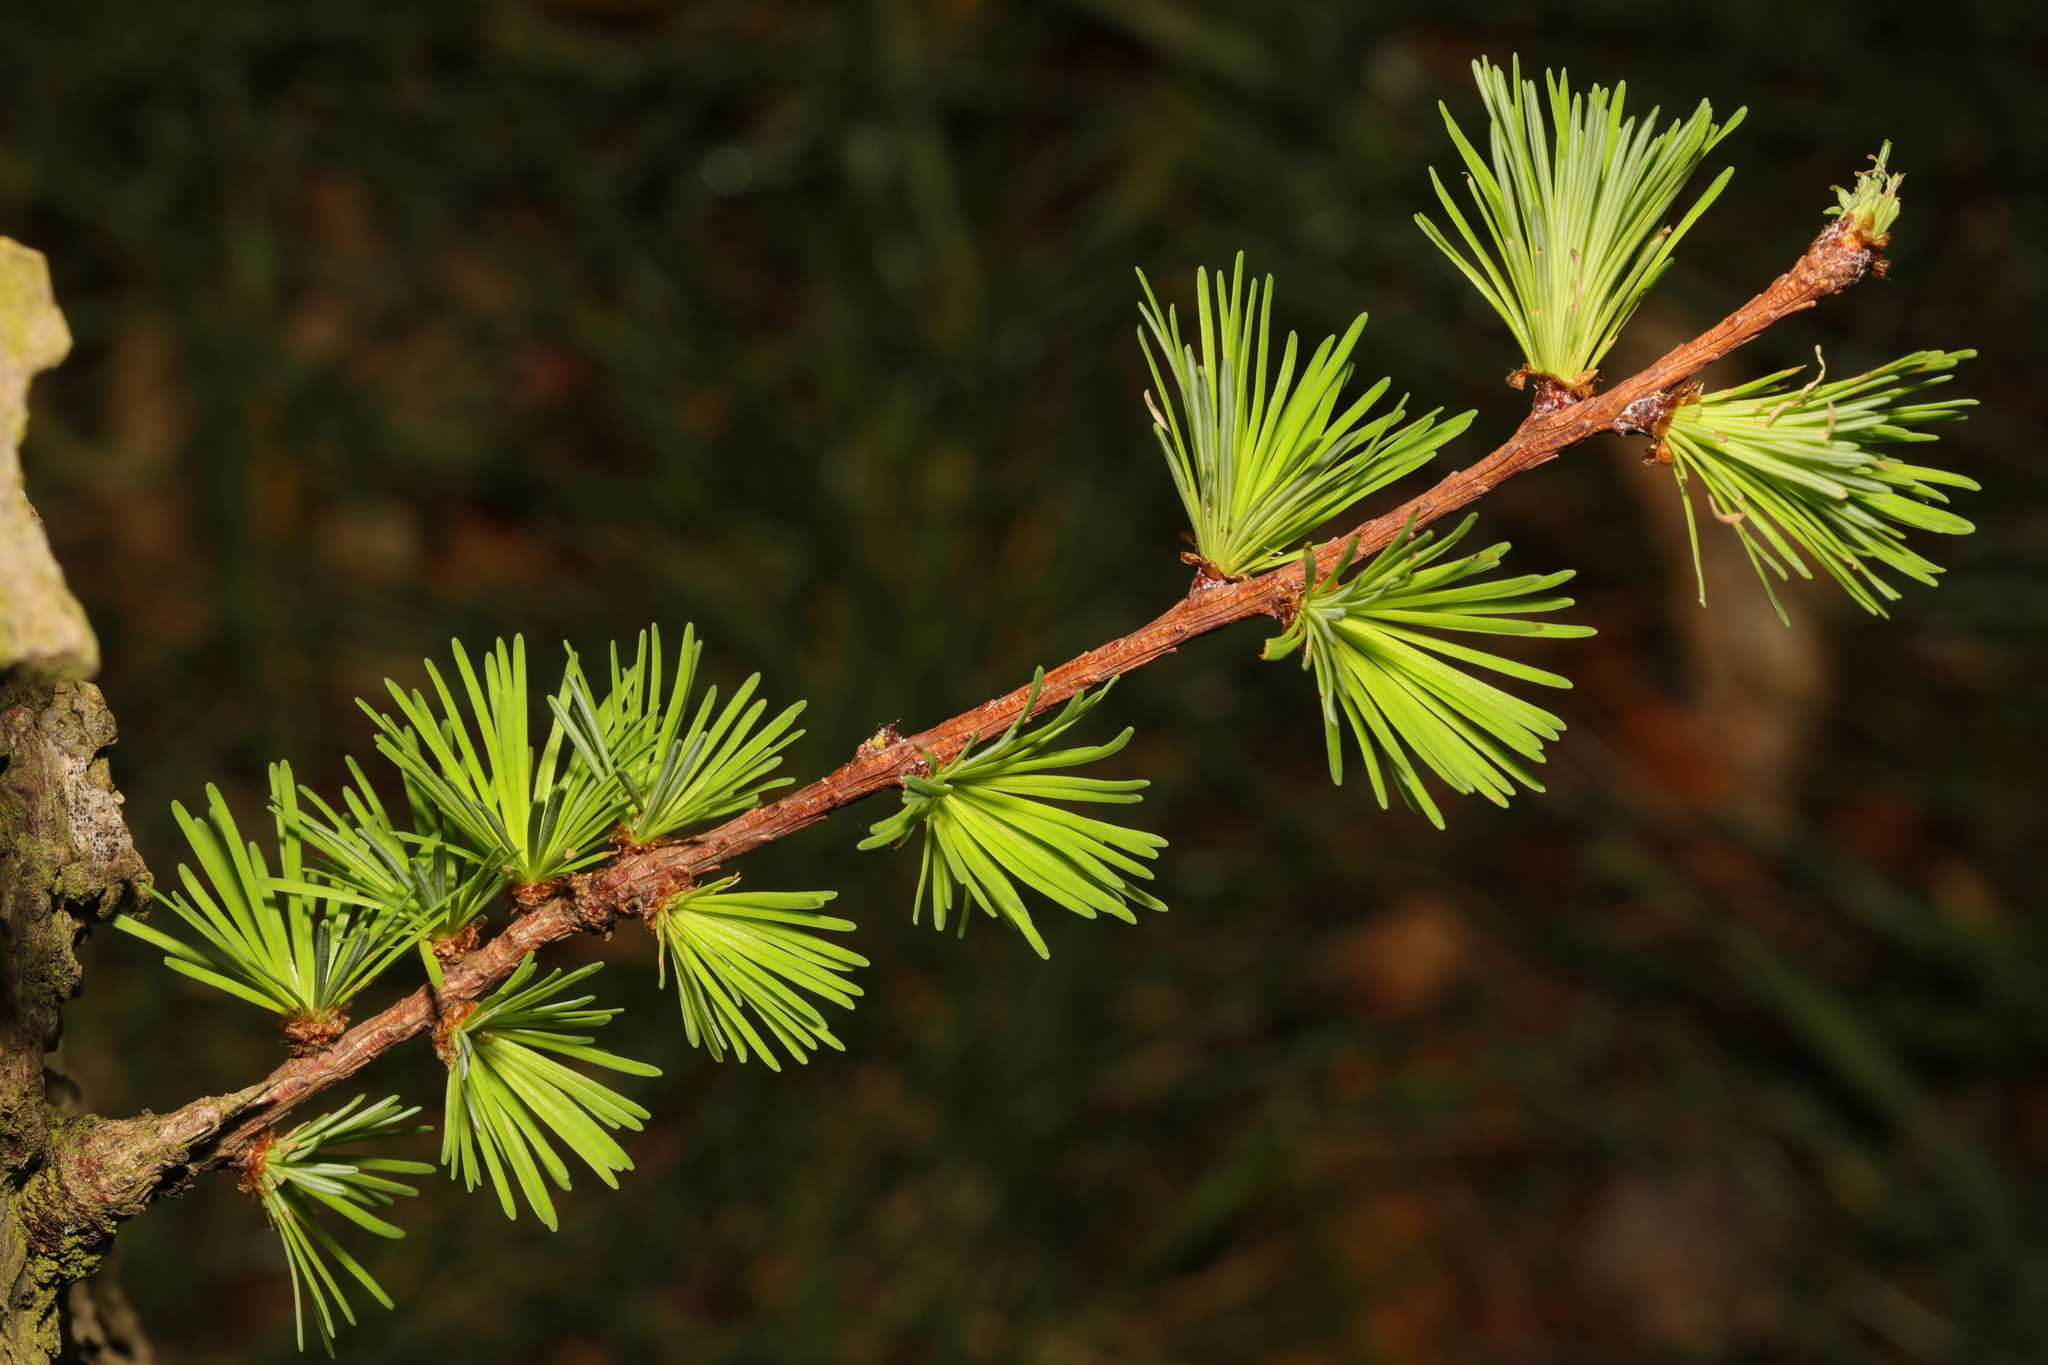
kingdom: Plantae
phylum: Tracheophyta
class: Pinopsida
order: Pinales
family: Pinaceae
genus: Larix
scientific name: Larix decidua
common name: European larch
